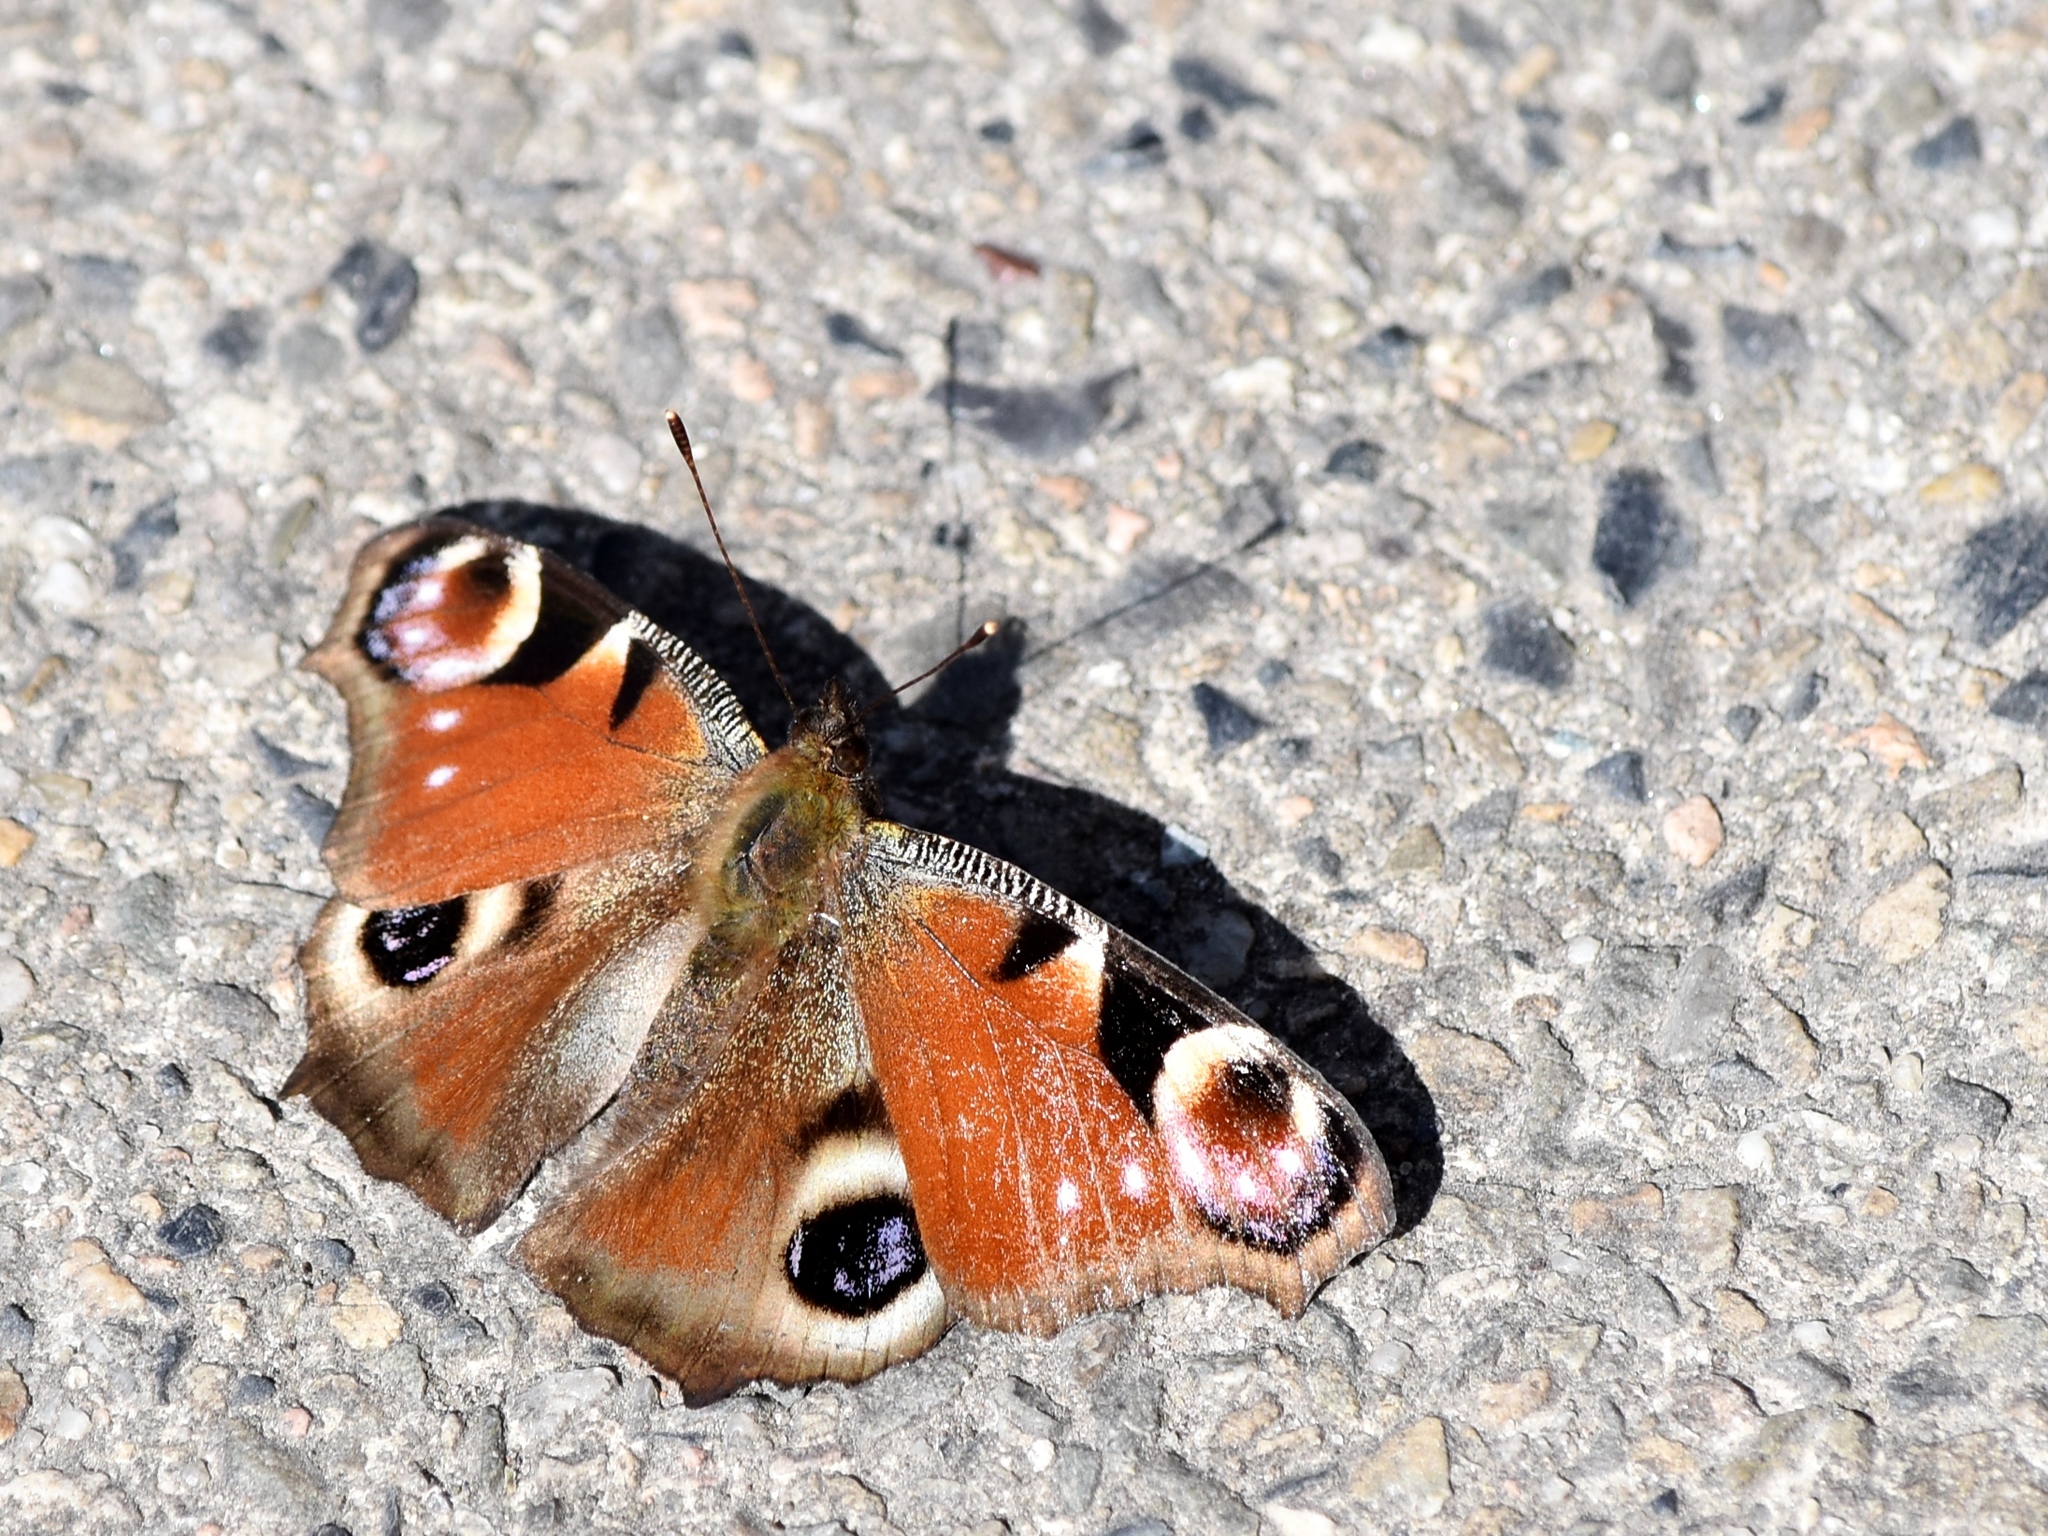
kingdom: Animalia
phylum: Arthropoda
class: Insecta
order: Lepidoptera
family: Nymphalidae
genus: Aglais
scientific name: Aglais io
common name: Peacock
